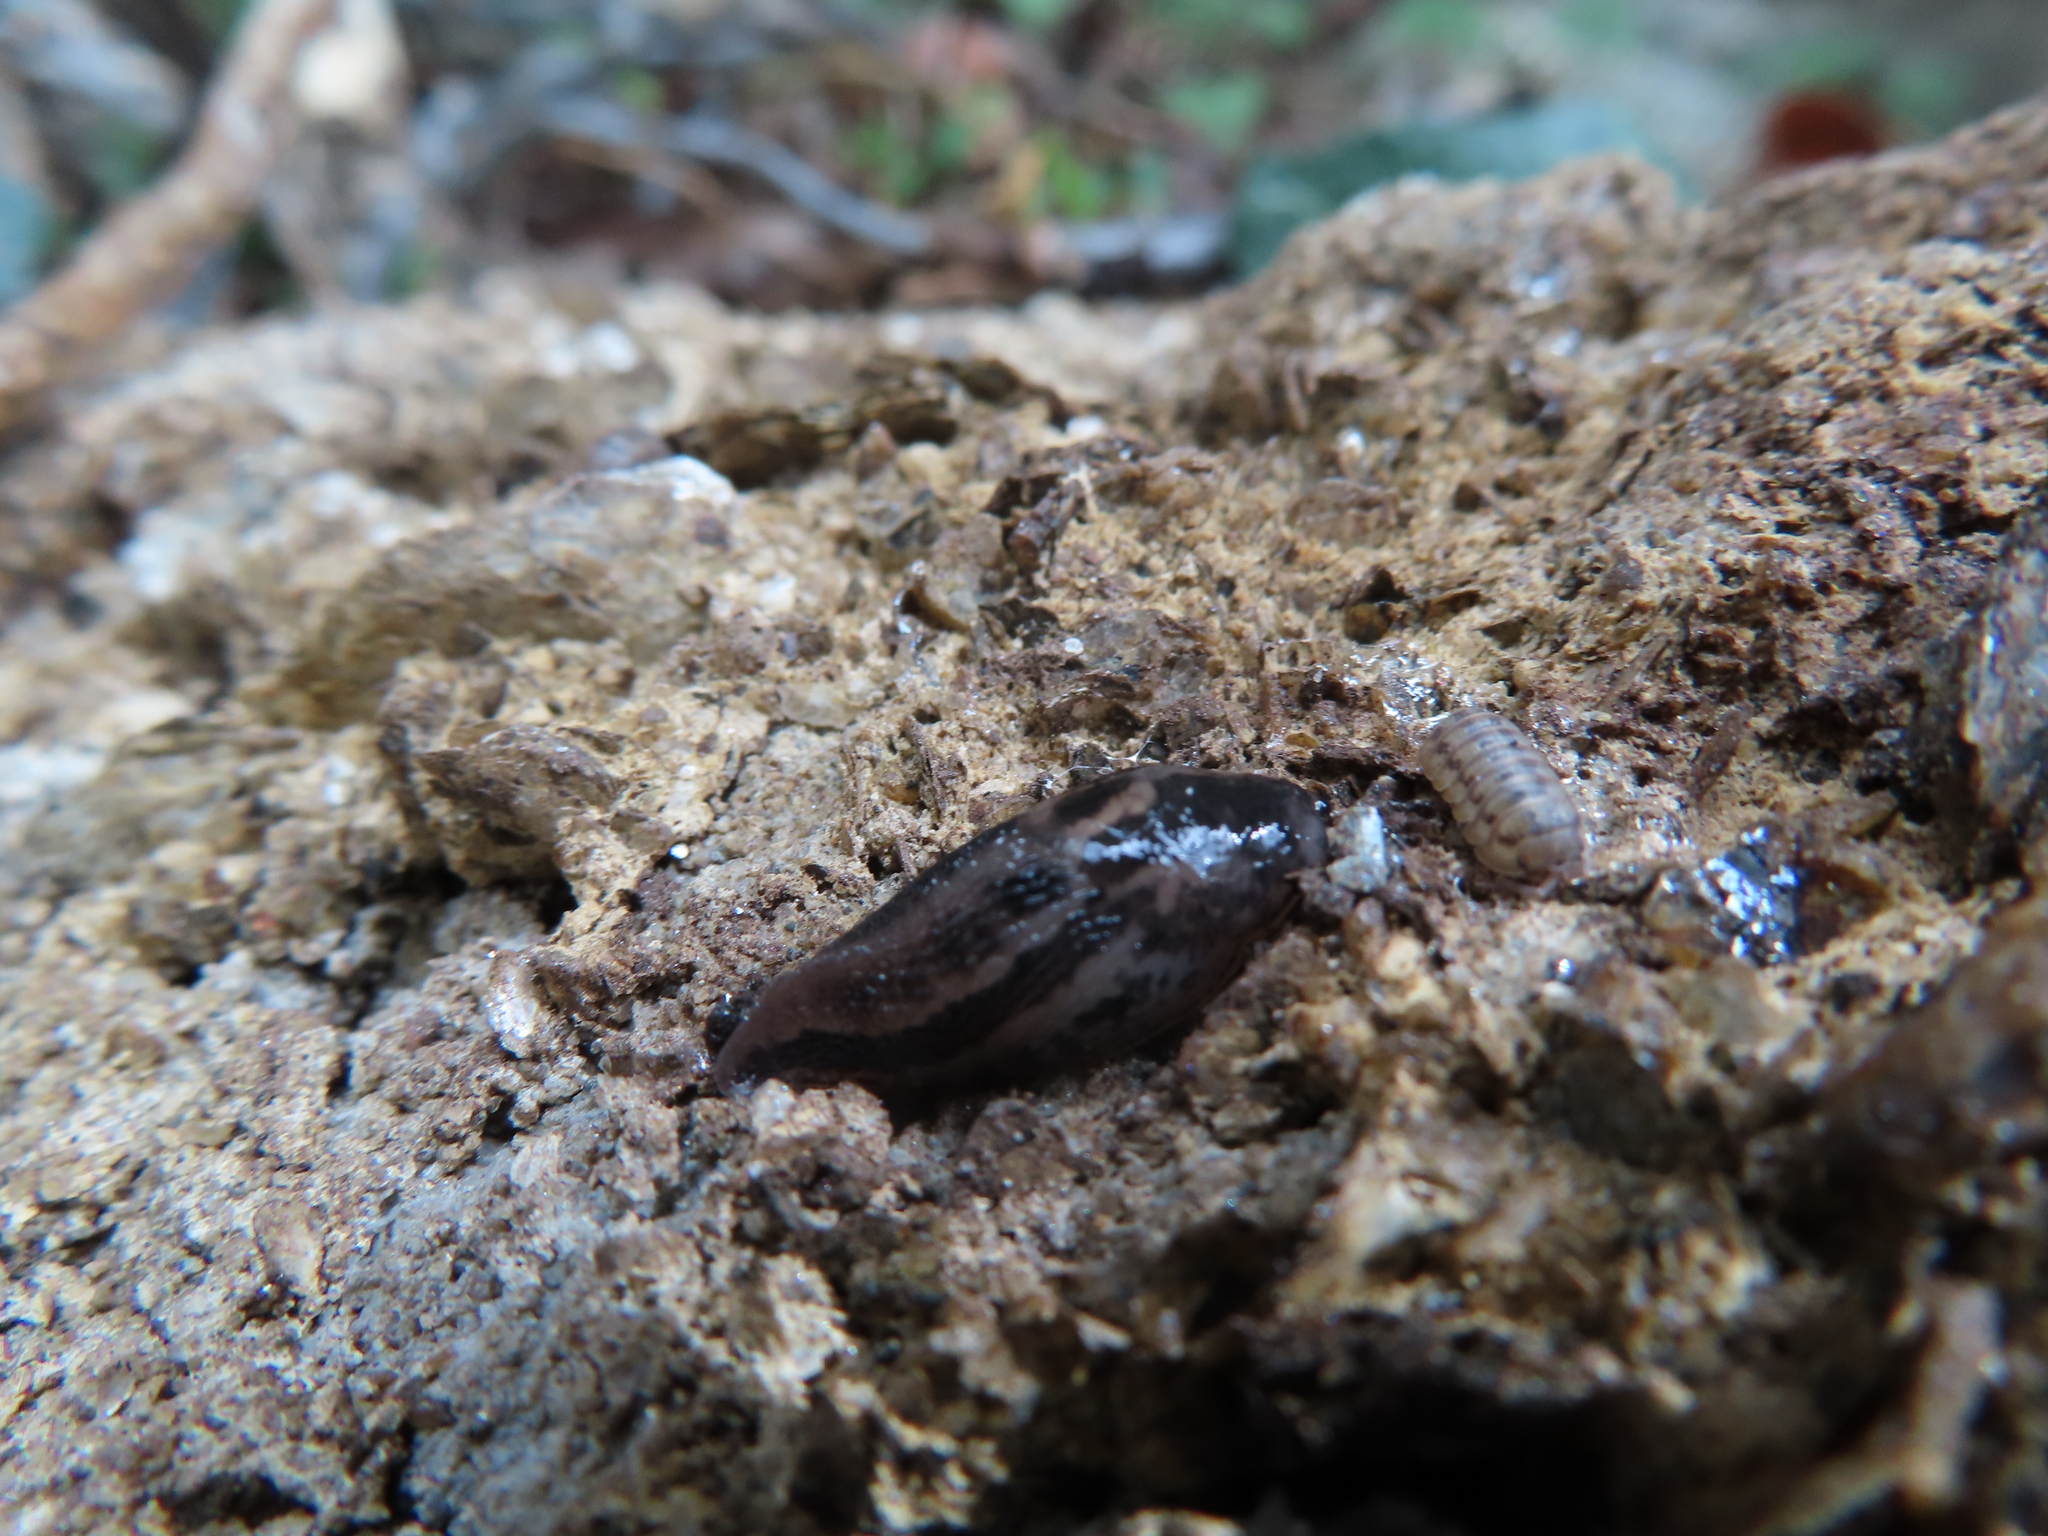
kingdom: Animalia
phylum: Mollusca
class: Gastropoda
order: Stylommatophora
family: Limacidae
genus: Limax
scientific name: Limax maximus
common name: Great grey slug
